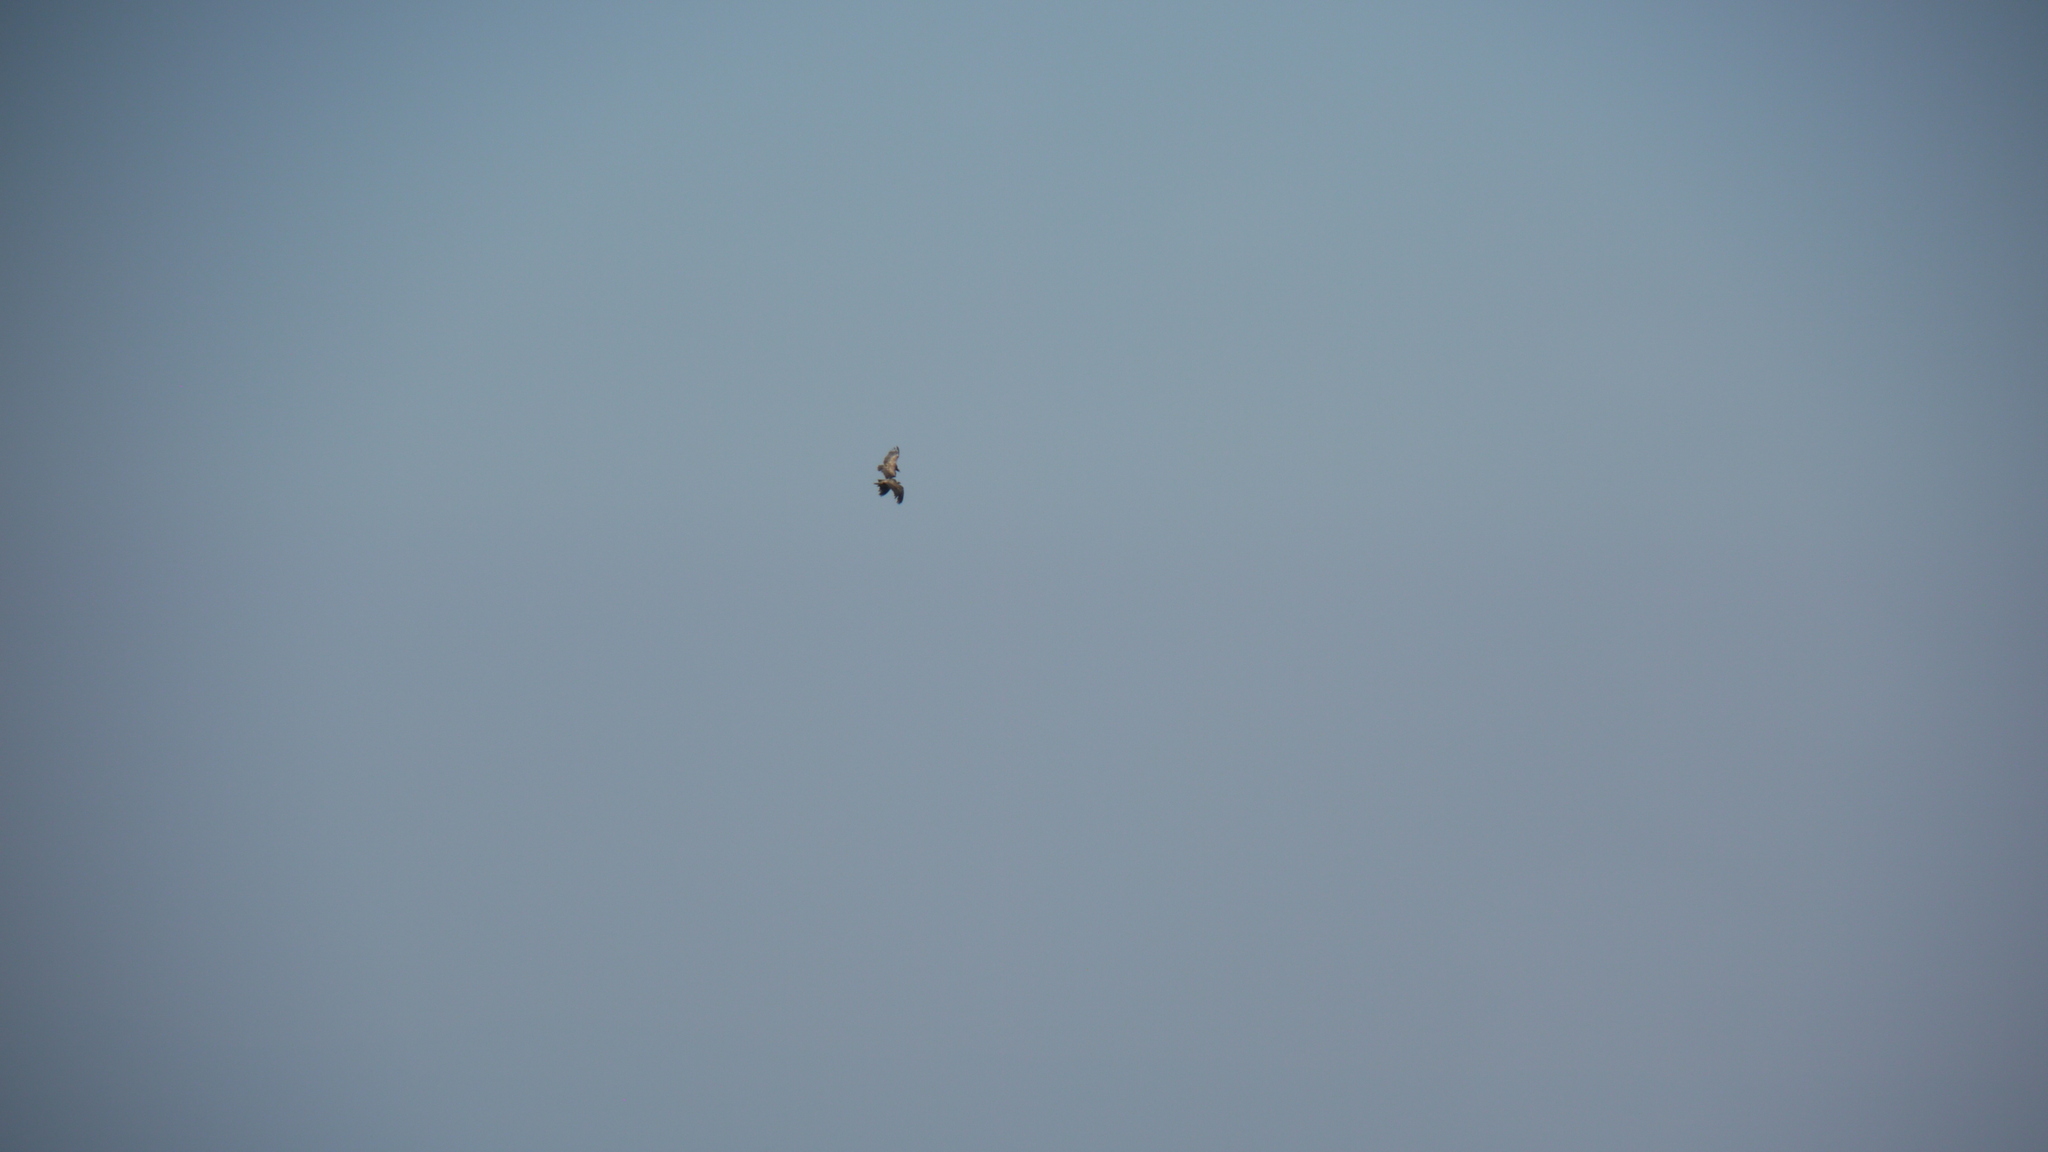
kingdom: Animalia
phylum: Chordata
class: Aves
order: Accipitriformes
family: Accipitridae
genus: Gyps
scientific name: Gyps fulvus
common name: Griffon vulture
